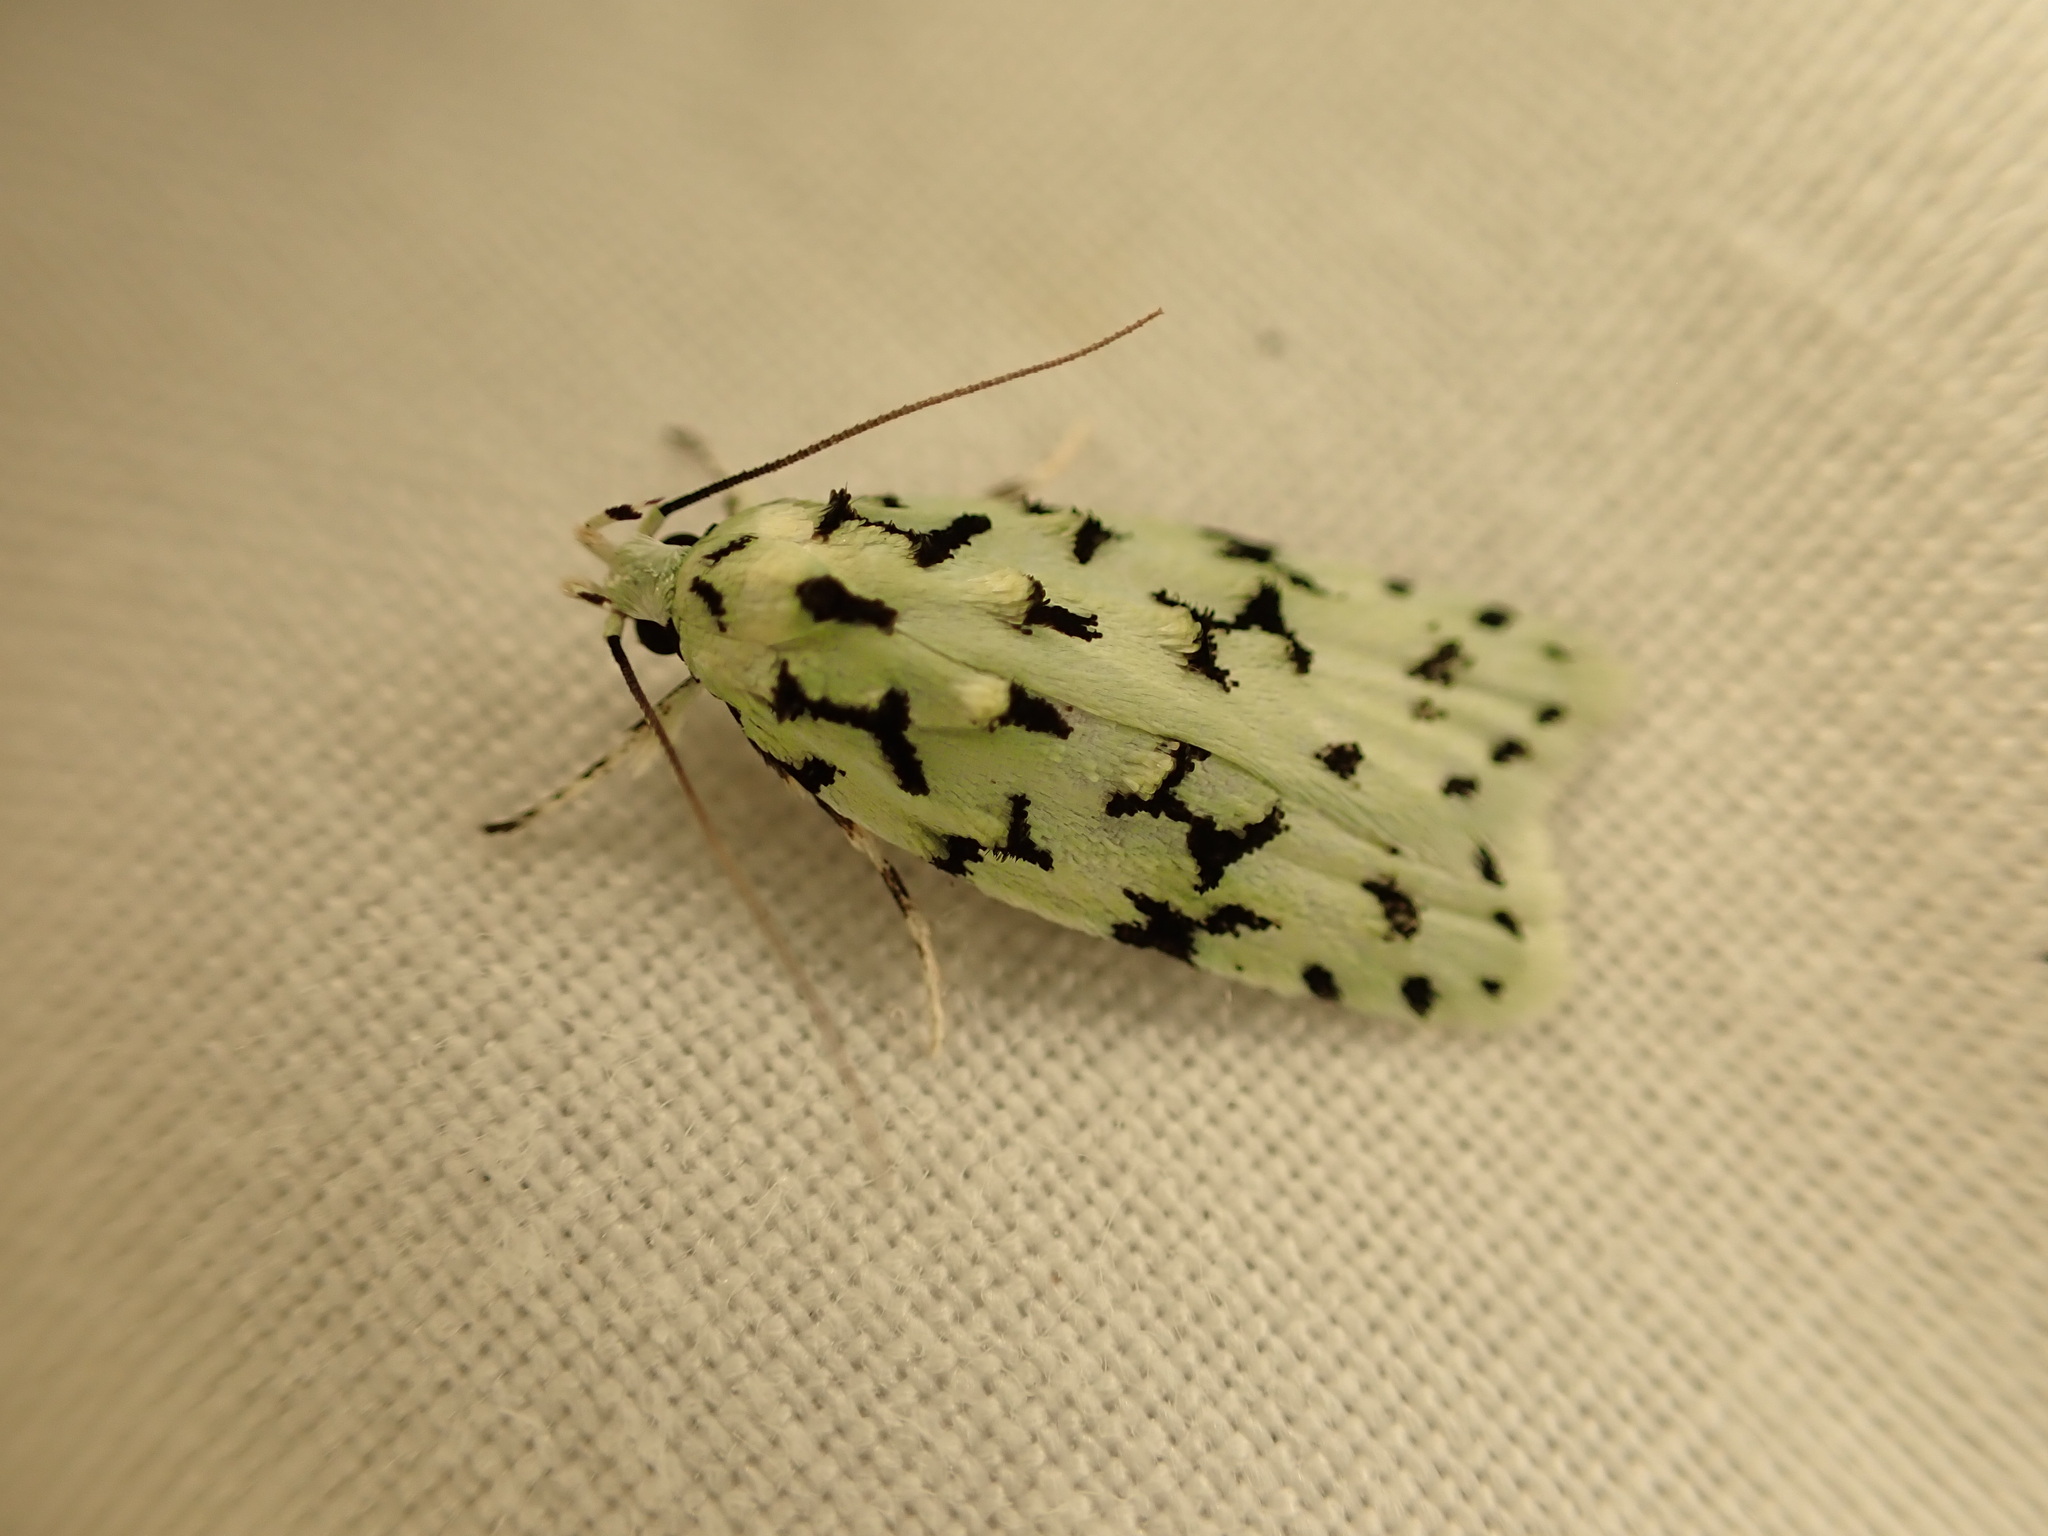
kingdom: Animalia
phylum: Arthropoda
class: Insecta
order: Lepidoptera
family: Oecophoridae
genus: Izatha
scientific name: Izatha huttoni
